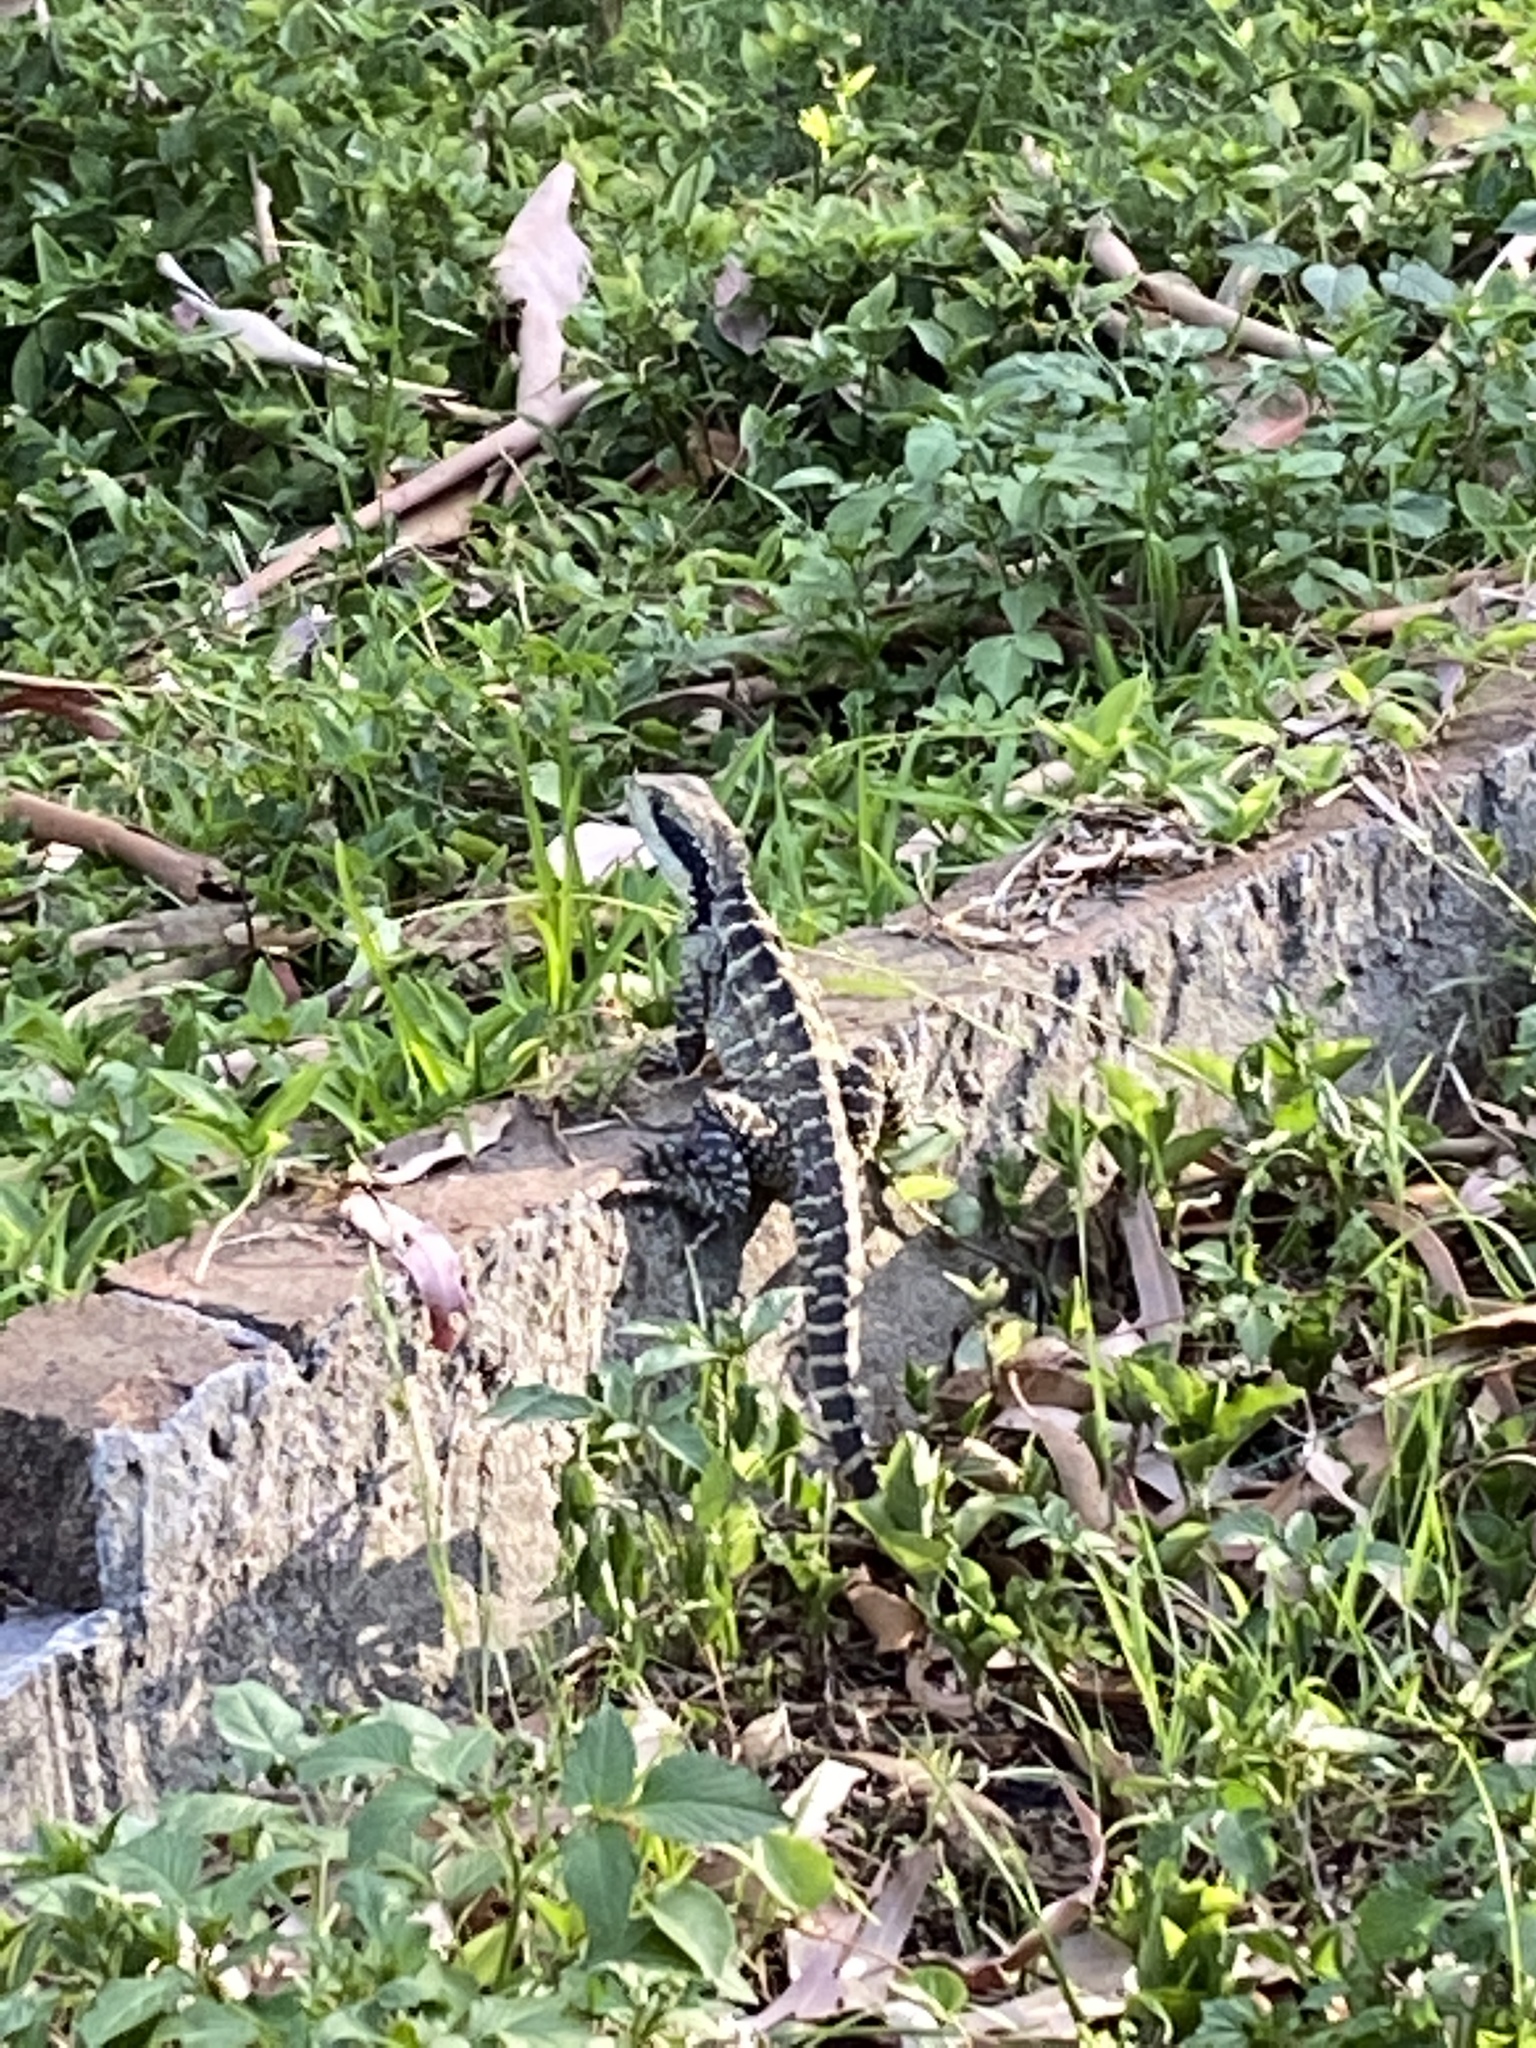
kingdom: Animalia
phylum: Chordata
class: Squamata
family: Agamidae
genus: Intellagama
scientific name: Intellagama lesueurii
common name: Eastern water dragon
